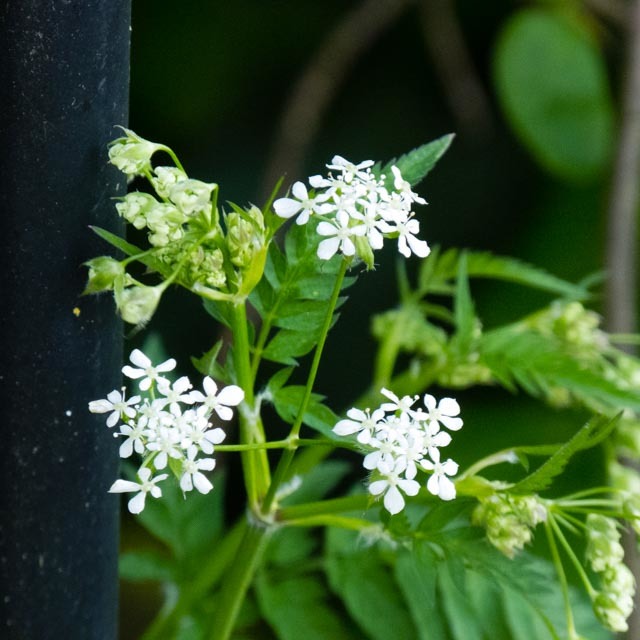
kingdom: Plantae
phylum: Tracheophyta
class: Magnoliopsida
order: Apiales
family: Apiaceae
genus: Anthriscus
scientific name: Anthriscus sylvestris
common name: Cow parsley
